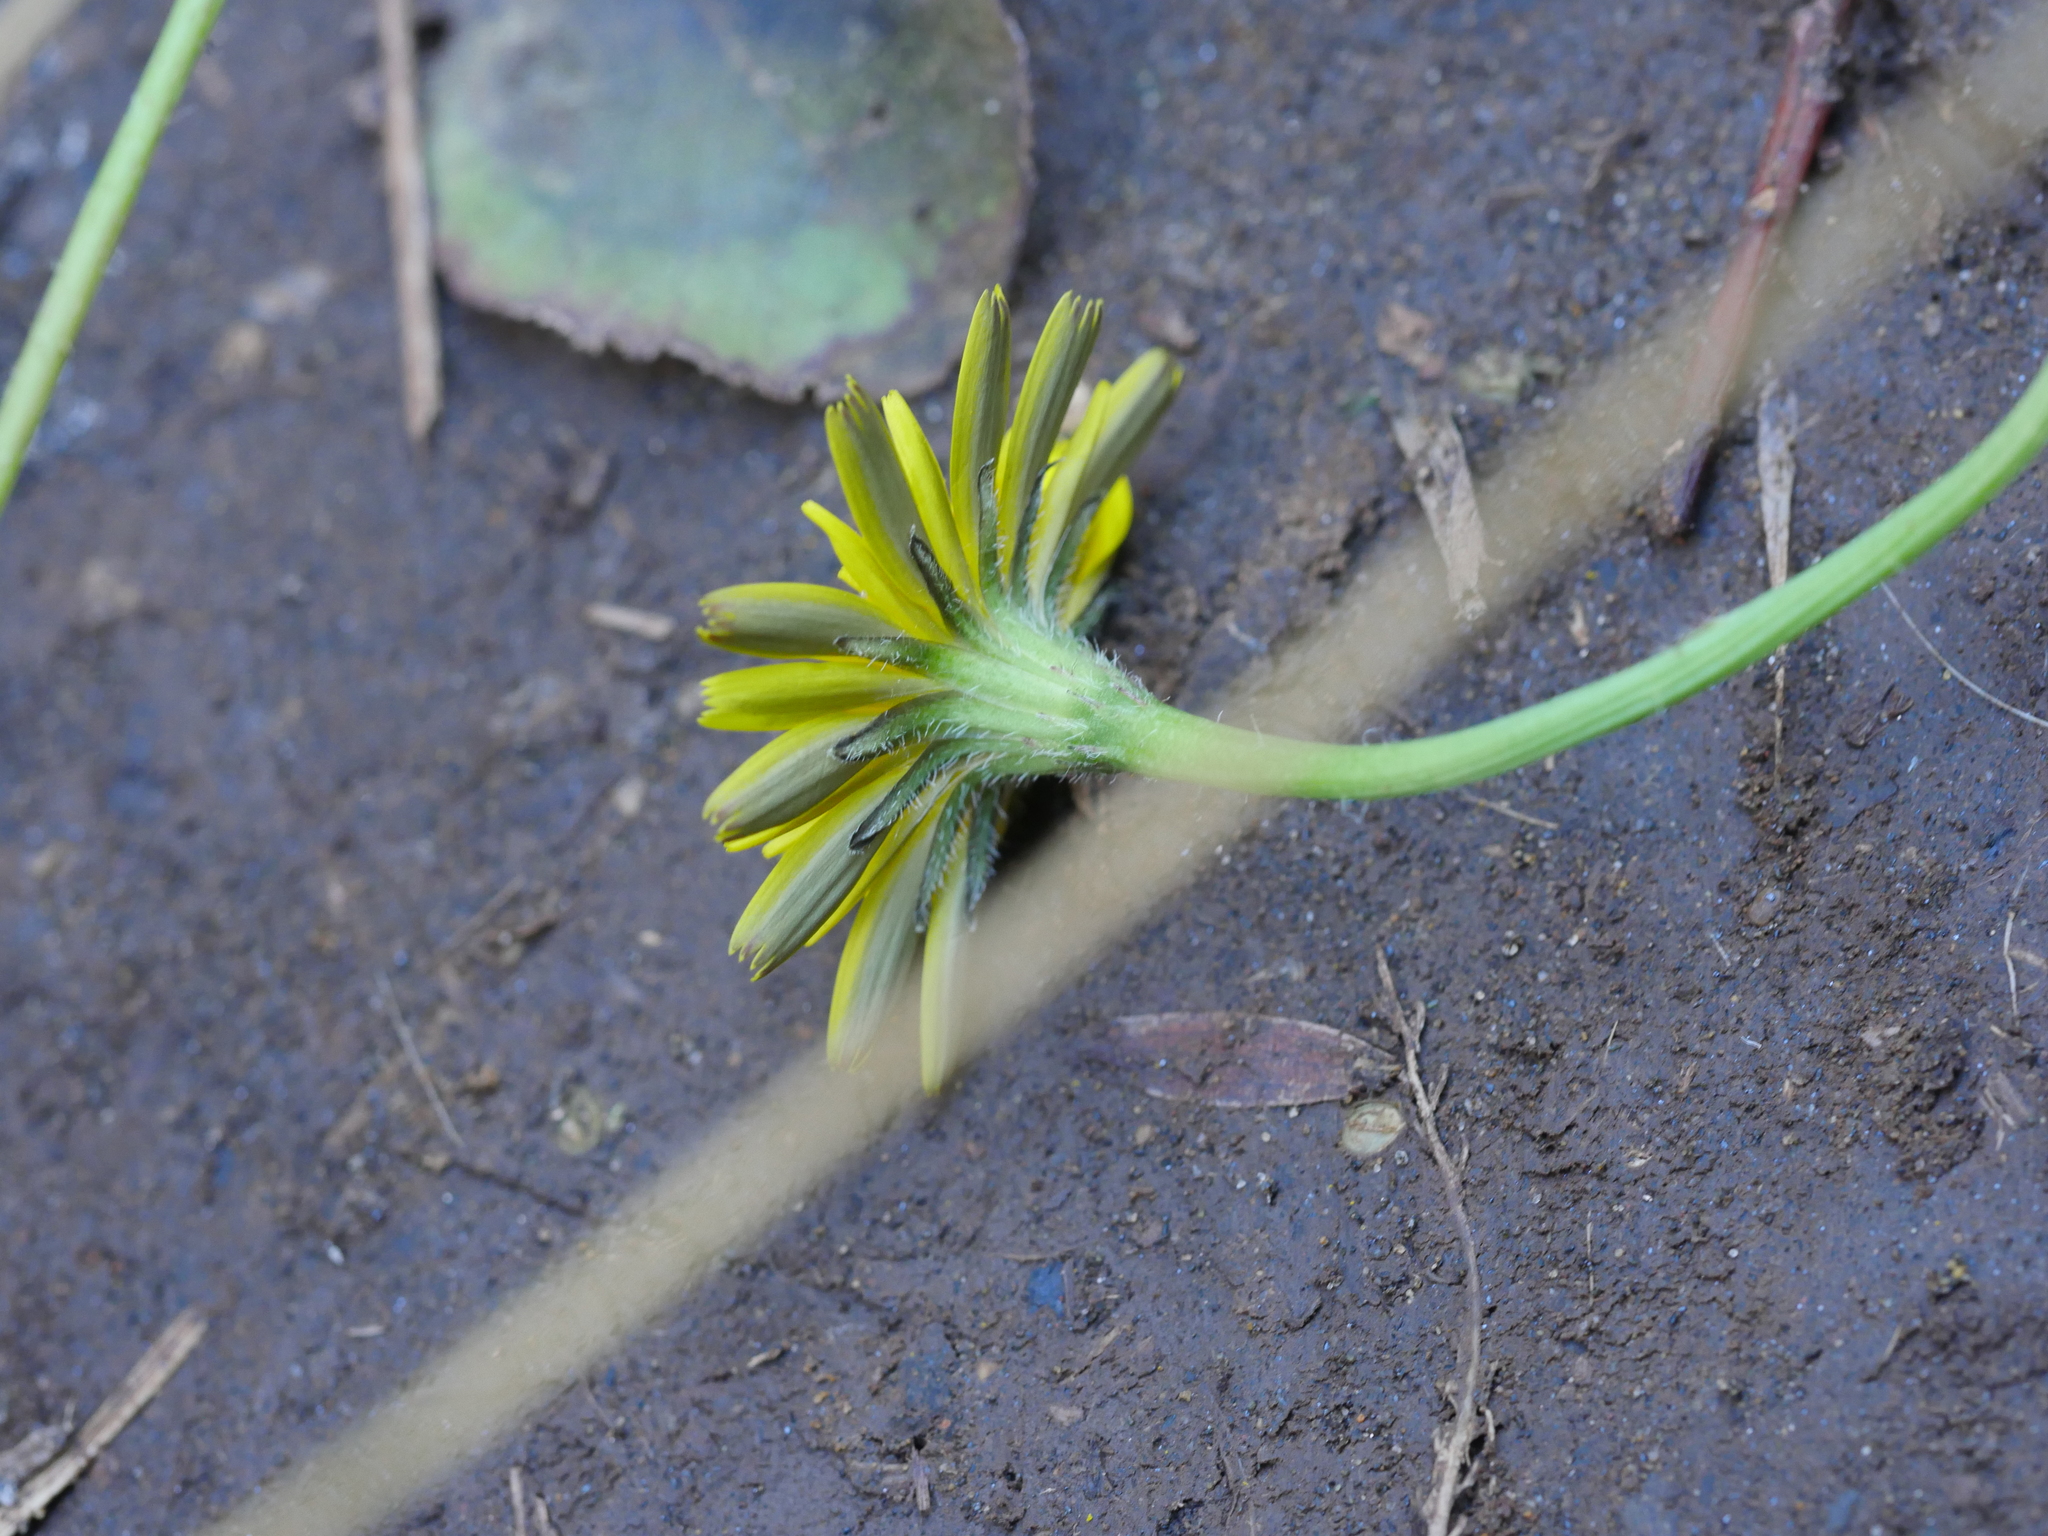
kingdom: Plantae
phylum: Tracheophyta
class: Magnoliopsida
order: Asterales
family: Asteraceae
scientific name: Asteraceae
